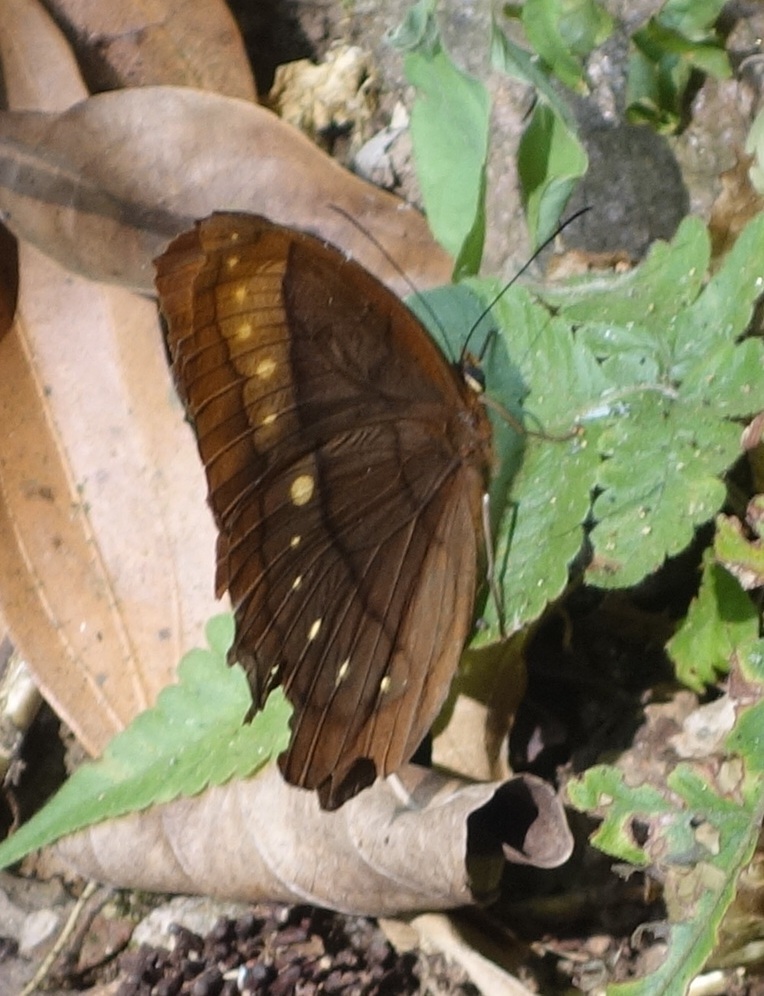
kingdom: Animalia
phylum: Arthropoda
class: Insecta
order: Lepidoptera
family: Nymphalidae
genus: Faunis
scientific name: Faunis eumeus
